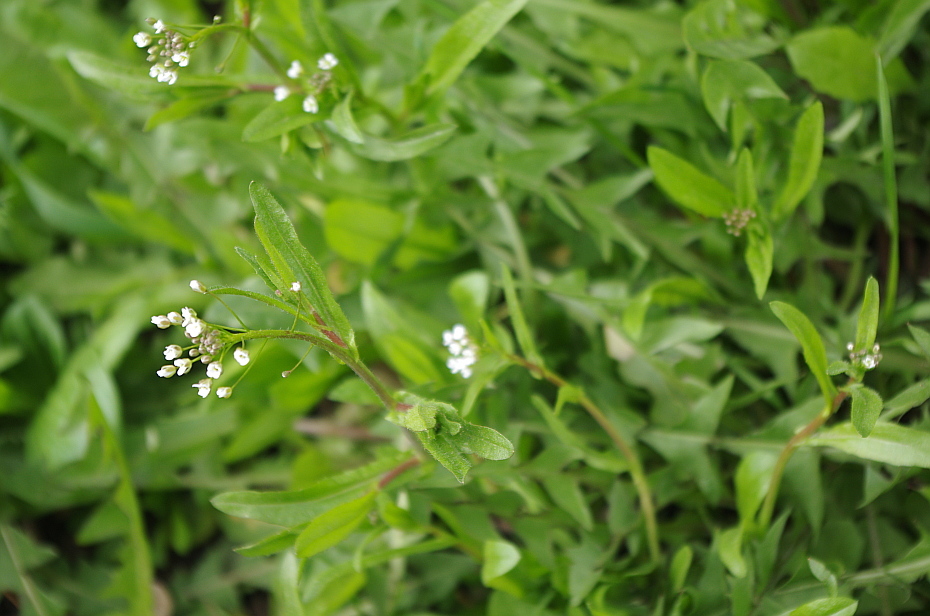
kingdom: Plantae
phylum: Tracheophyta
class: Magnoliopsida
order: Brassicales
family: Brassicaceae
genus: Capsella
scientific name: Capsella bursa-pastoris
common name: Shepherd's purse
